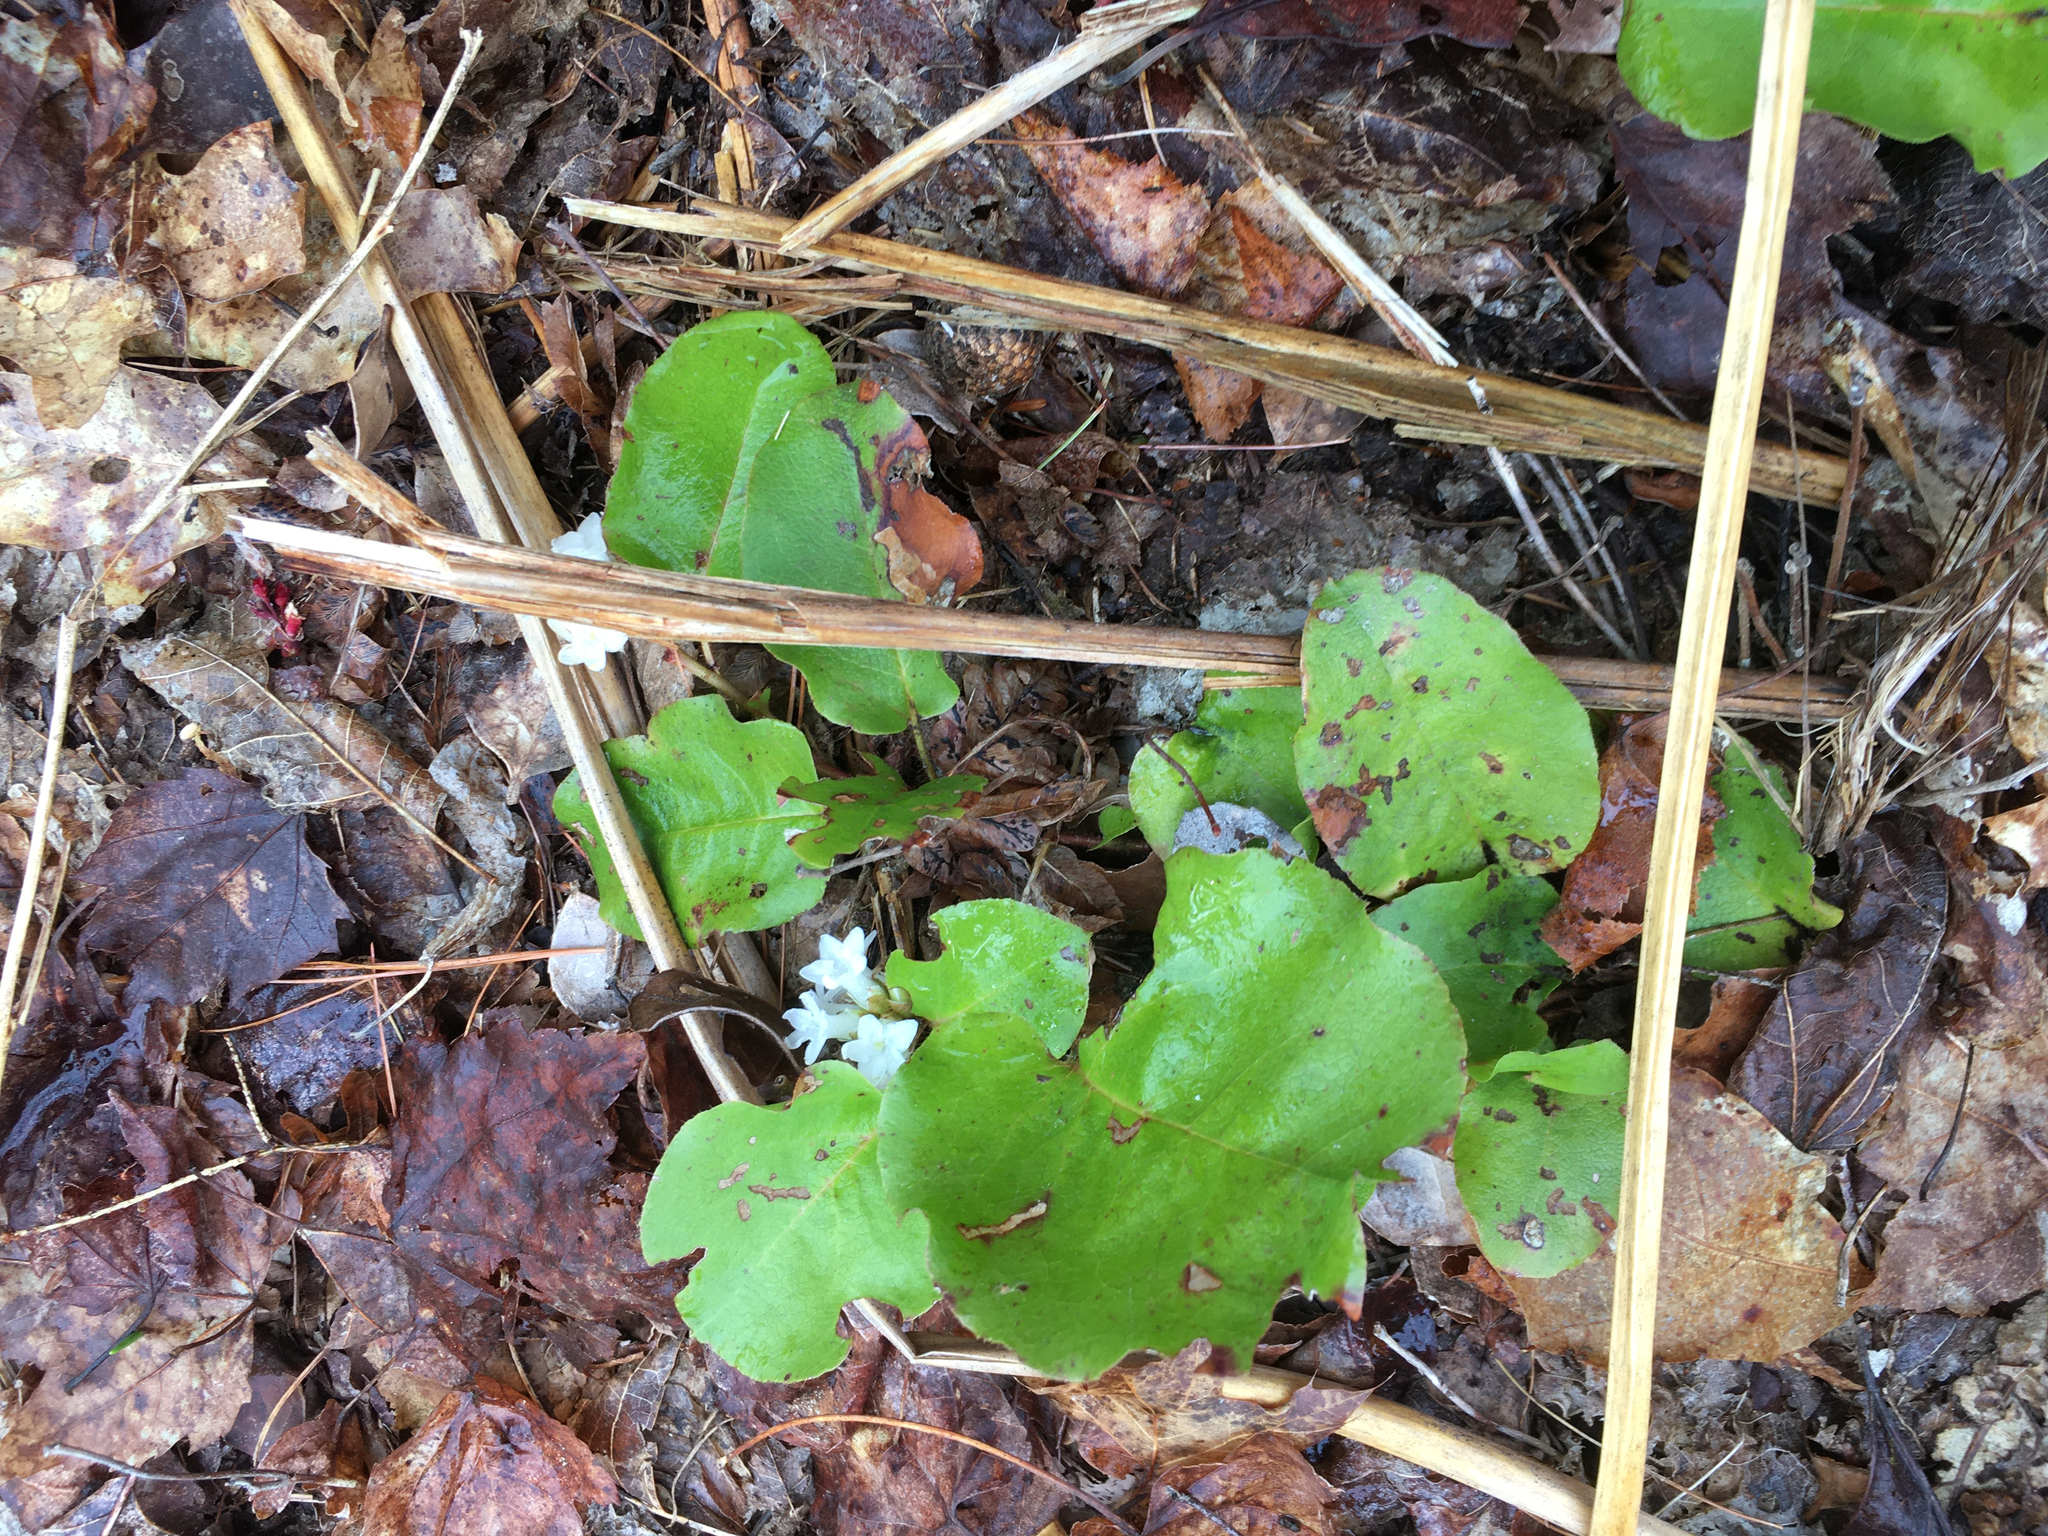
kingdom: Plantae
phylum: Tracheophyta
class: Magnoliopsida
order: Ericales
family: Ericaceae
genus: Epigaea
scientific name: Epigaea repens
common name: Gravelroot
